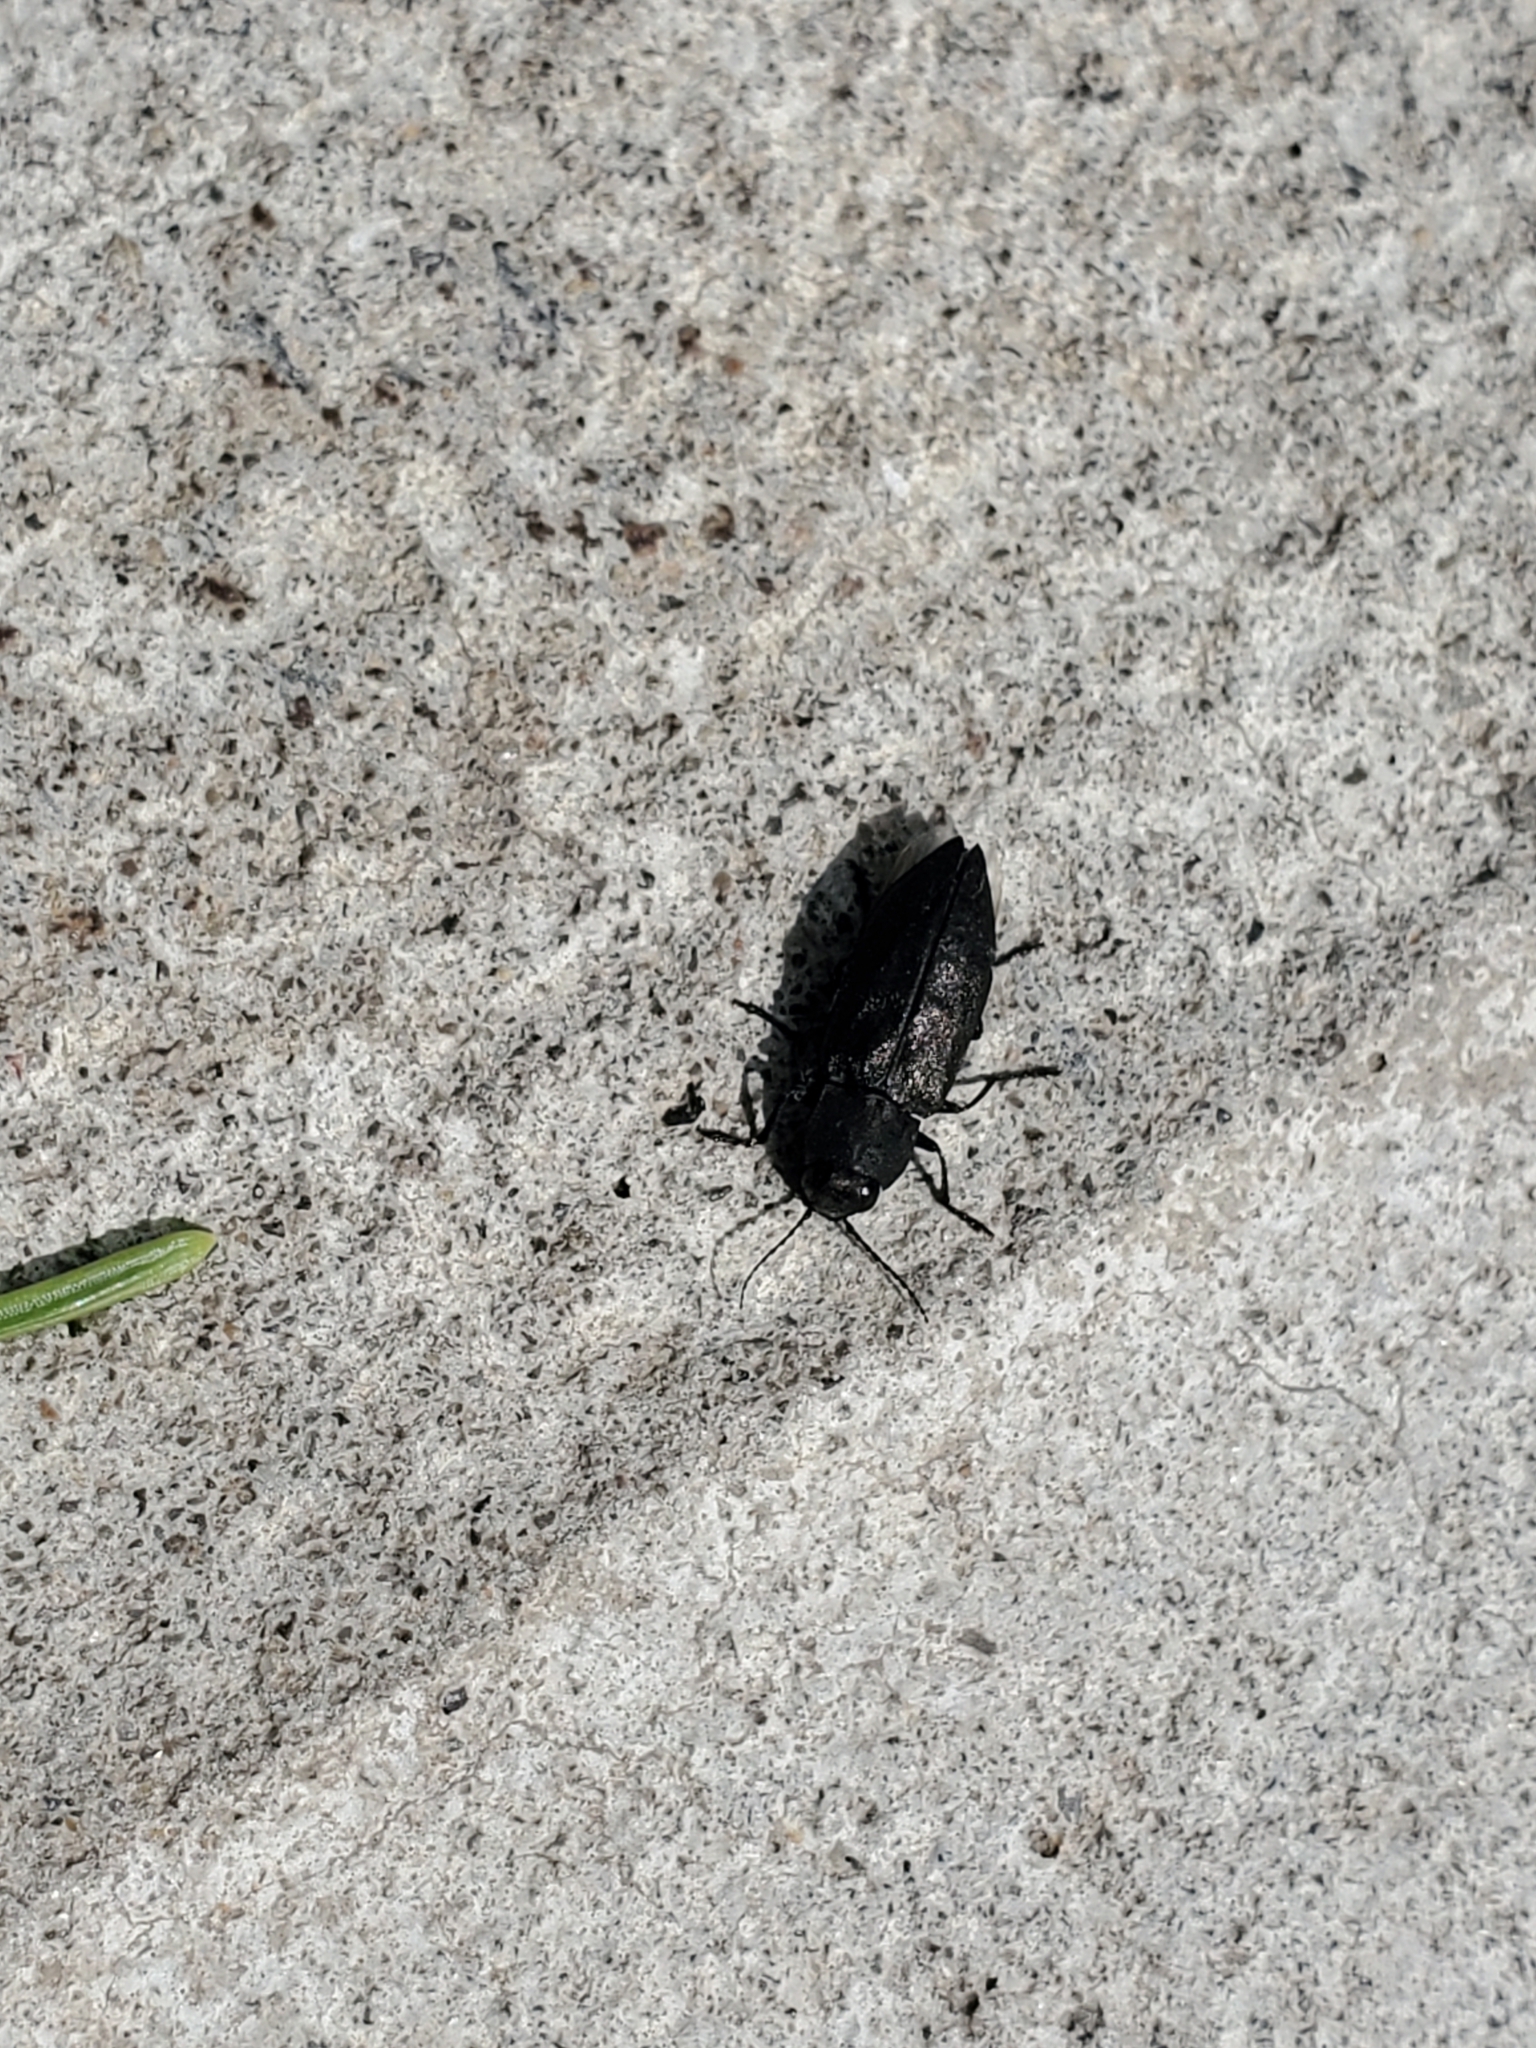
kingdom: Animalia
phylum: Arthropoda
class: Insecta
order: Coleoptera
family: Buprestidae
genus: Melanophila
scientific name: Melanophila acuminata
